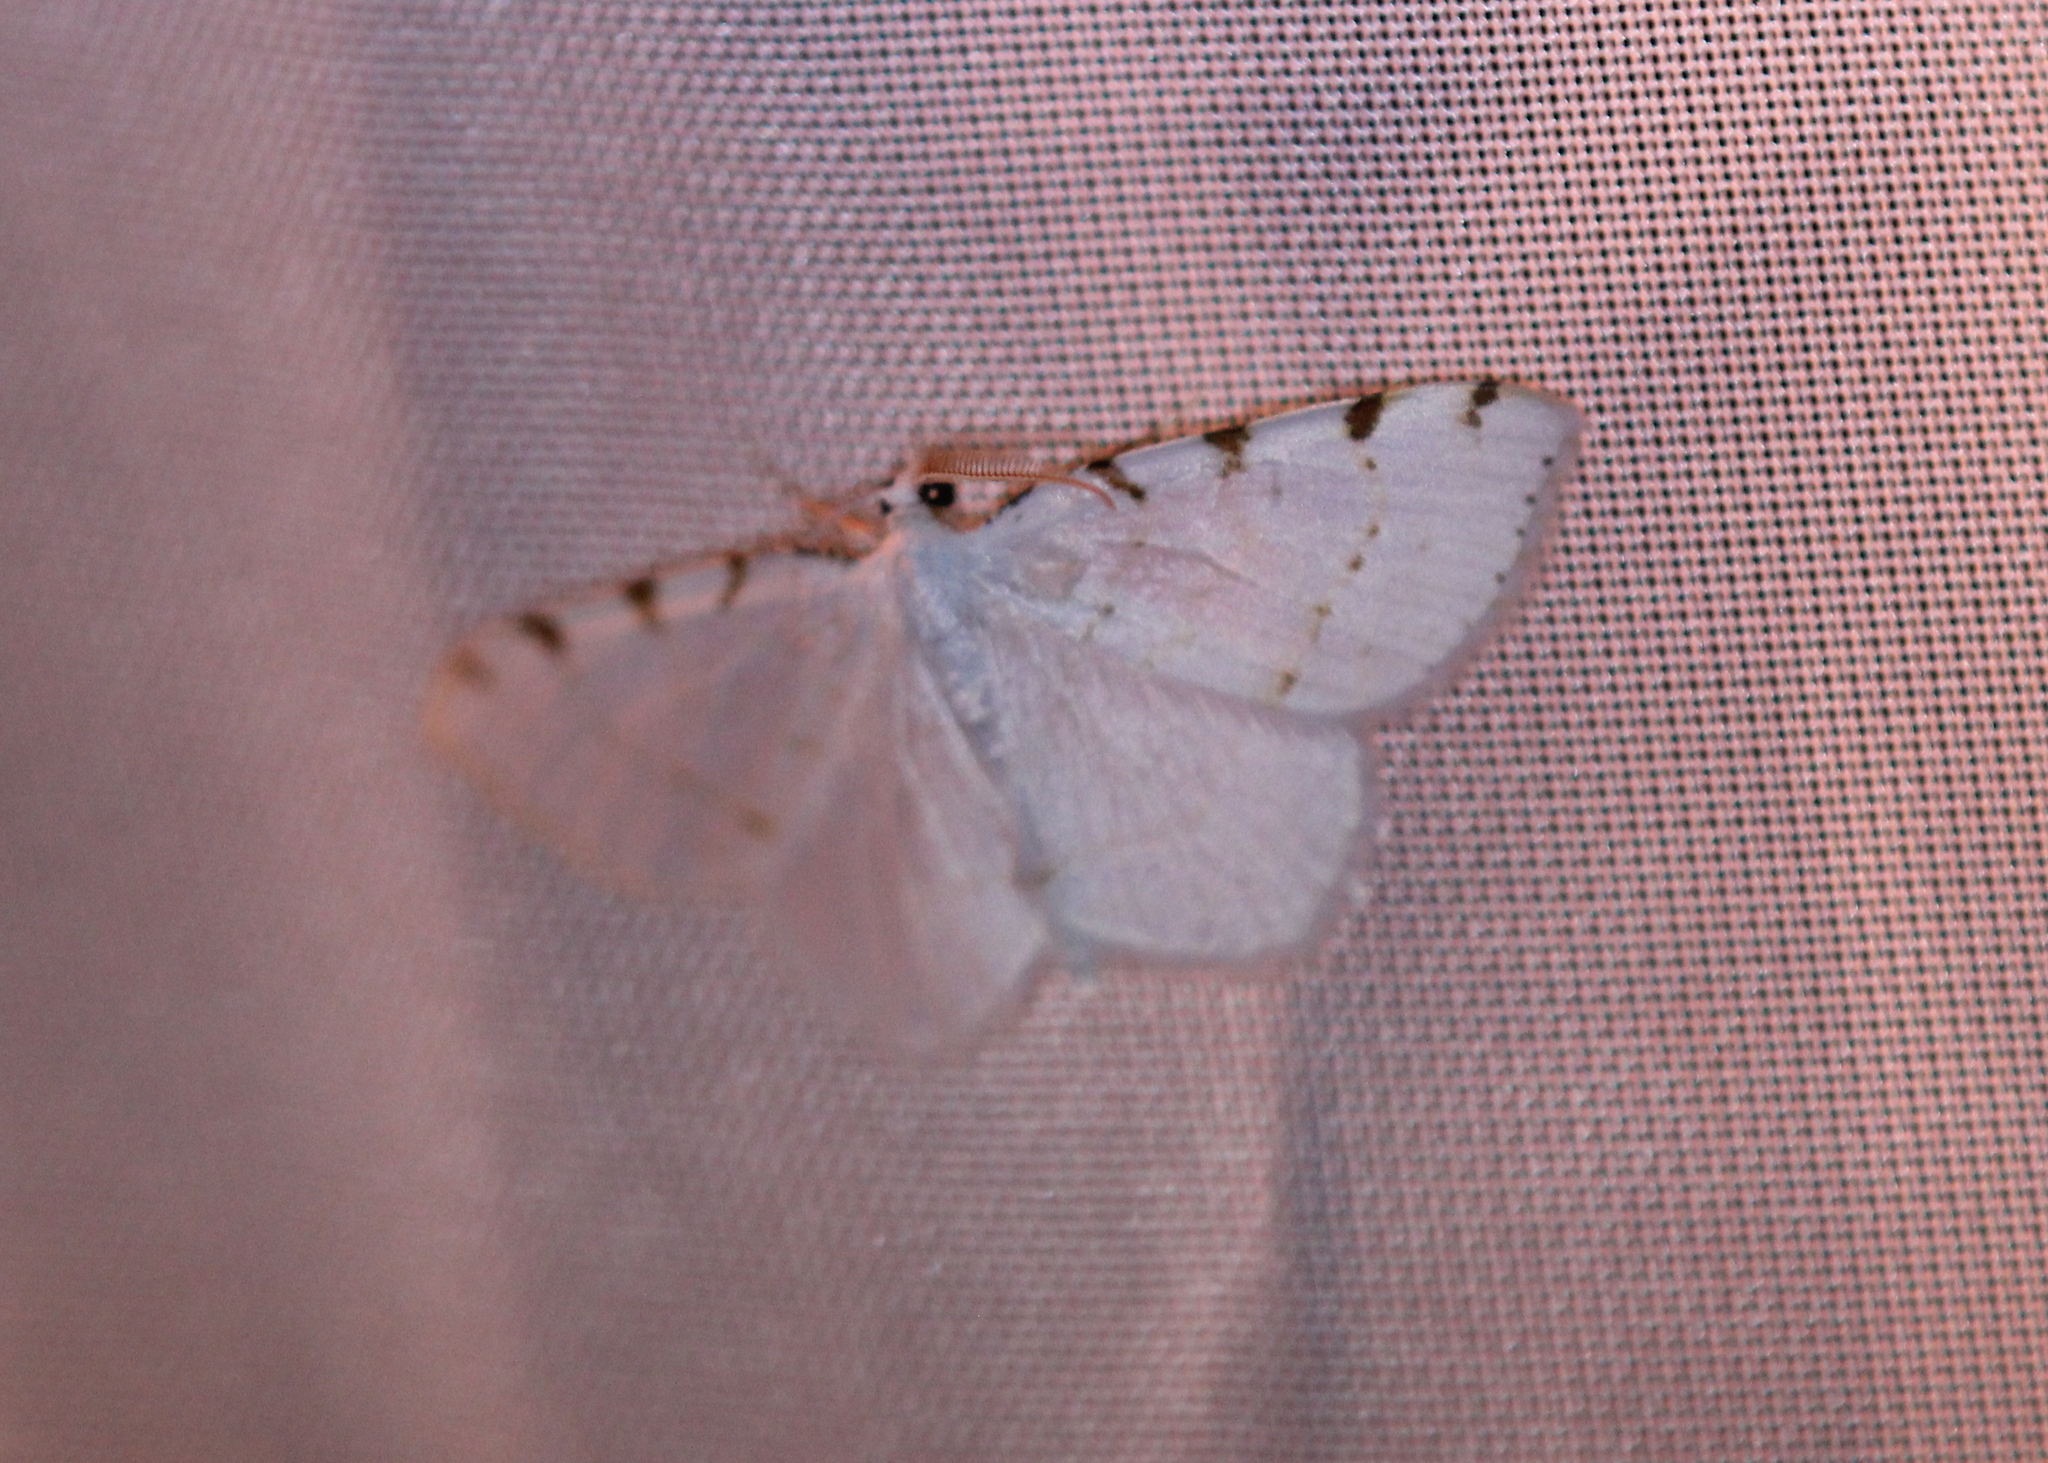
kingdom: Animalia
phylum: Arthropoda
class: Insecta
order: Lepidoptera
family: Geometridae
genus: Macaria
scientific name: Macaria pustularia
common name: Lesser maple spanworm moth
